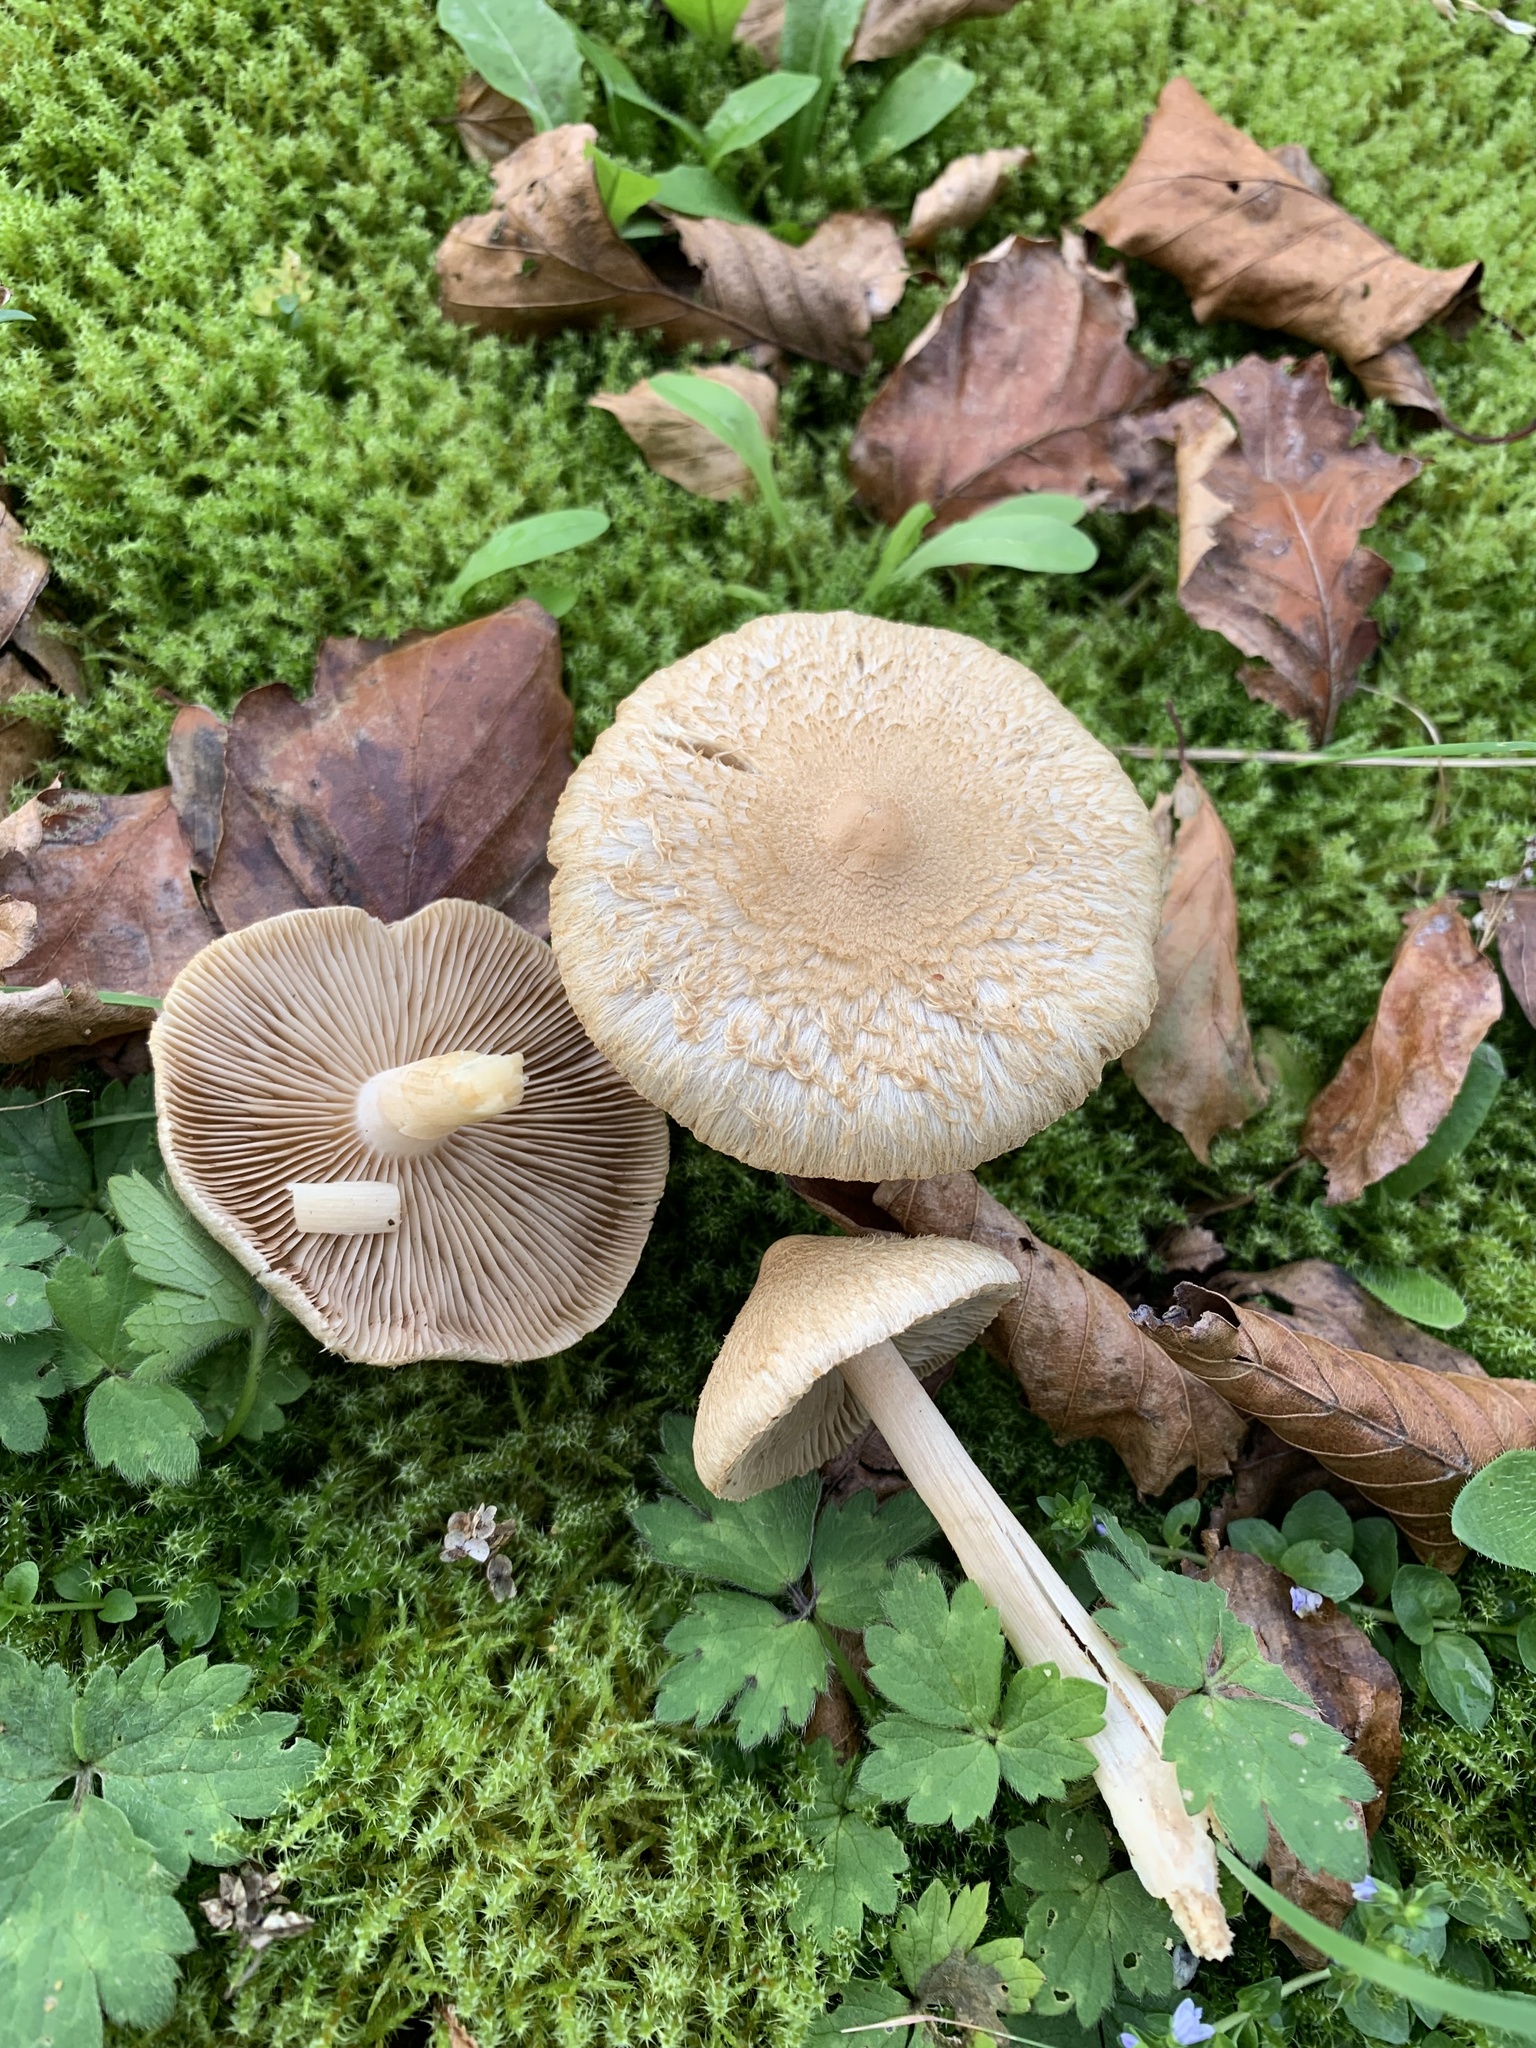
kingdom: Fungi
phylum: Basidiomycota
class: Agaricomycetes
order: Agaricales
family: Bolbitiaceae
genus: Bolbitius
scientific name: Bolbitius titubans
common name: Yellow fieldcap
